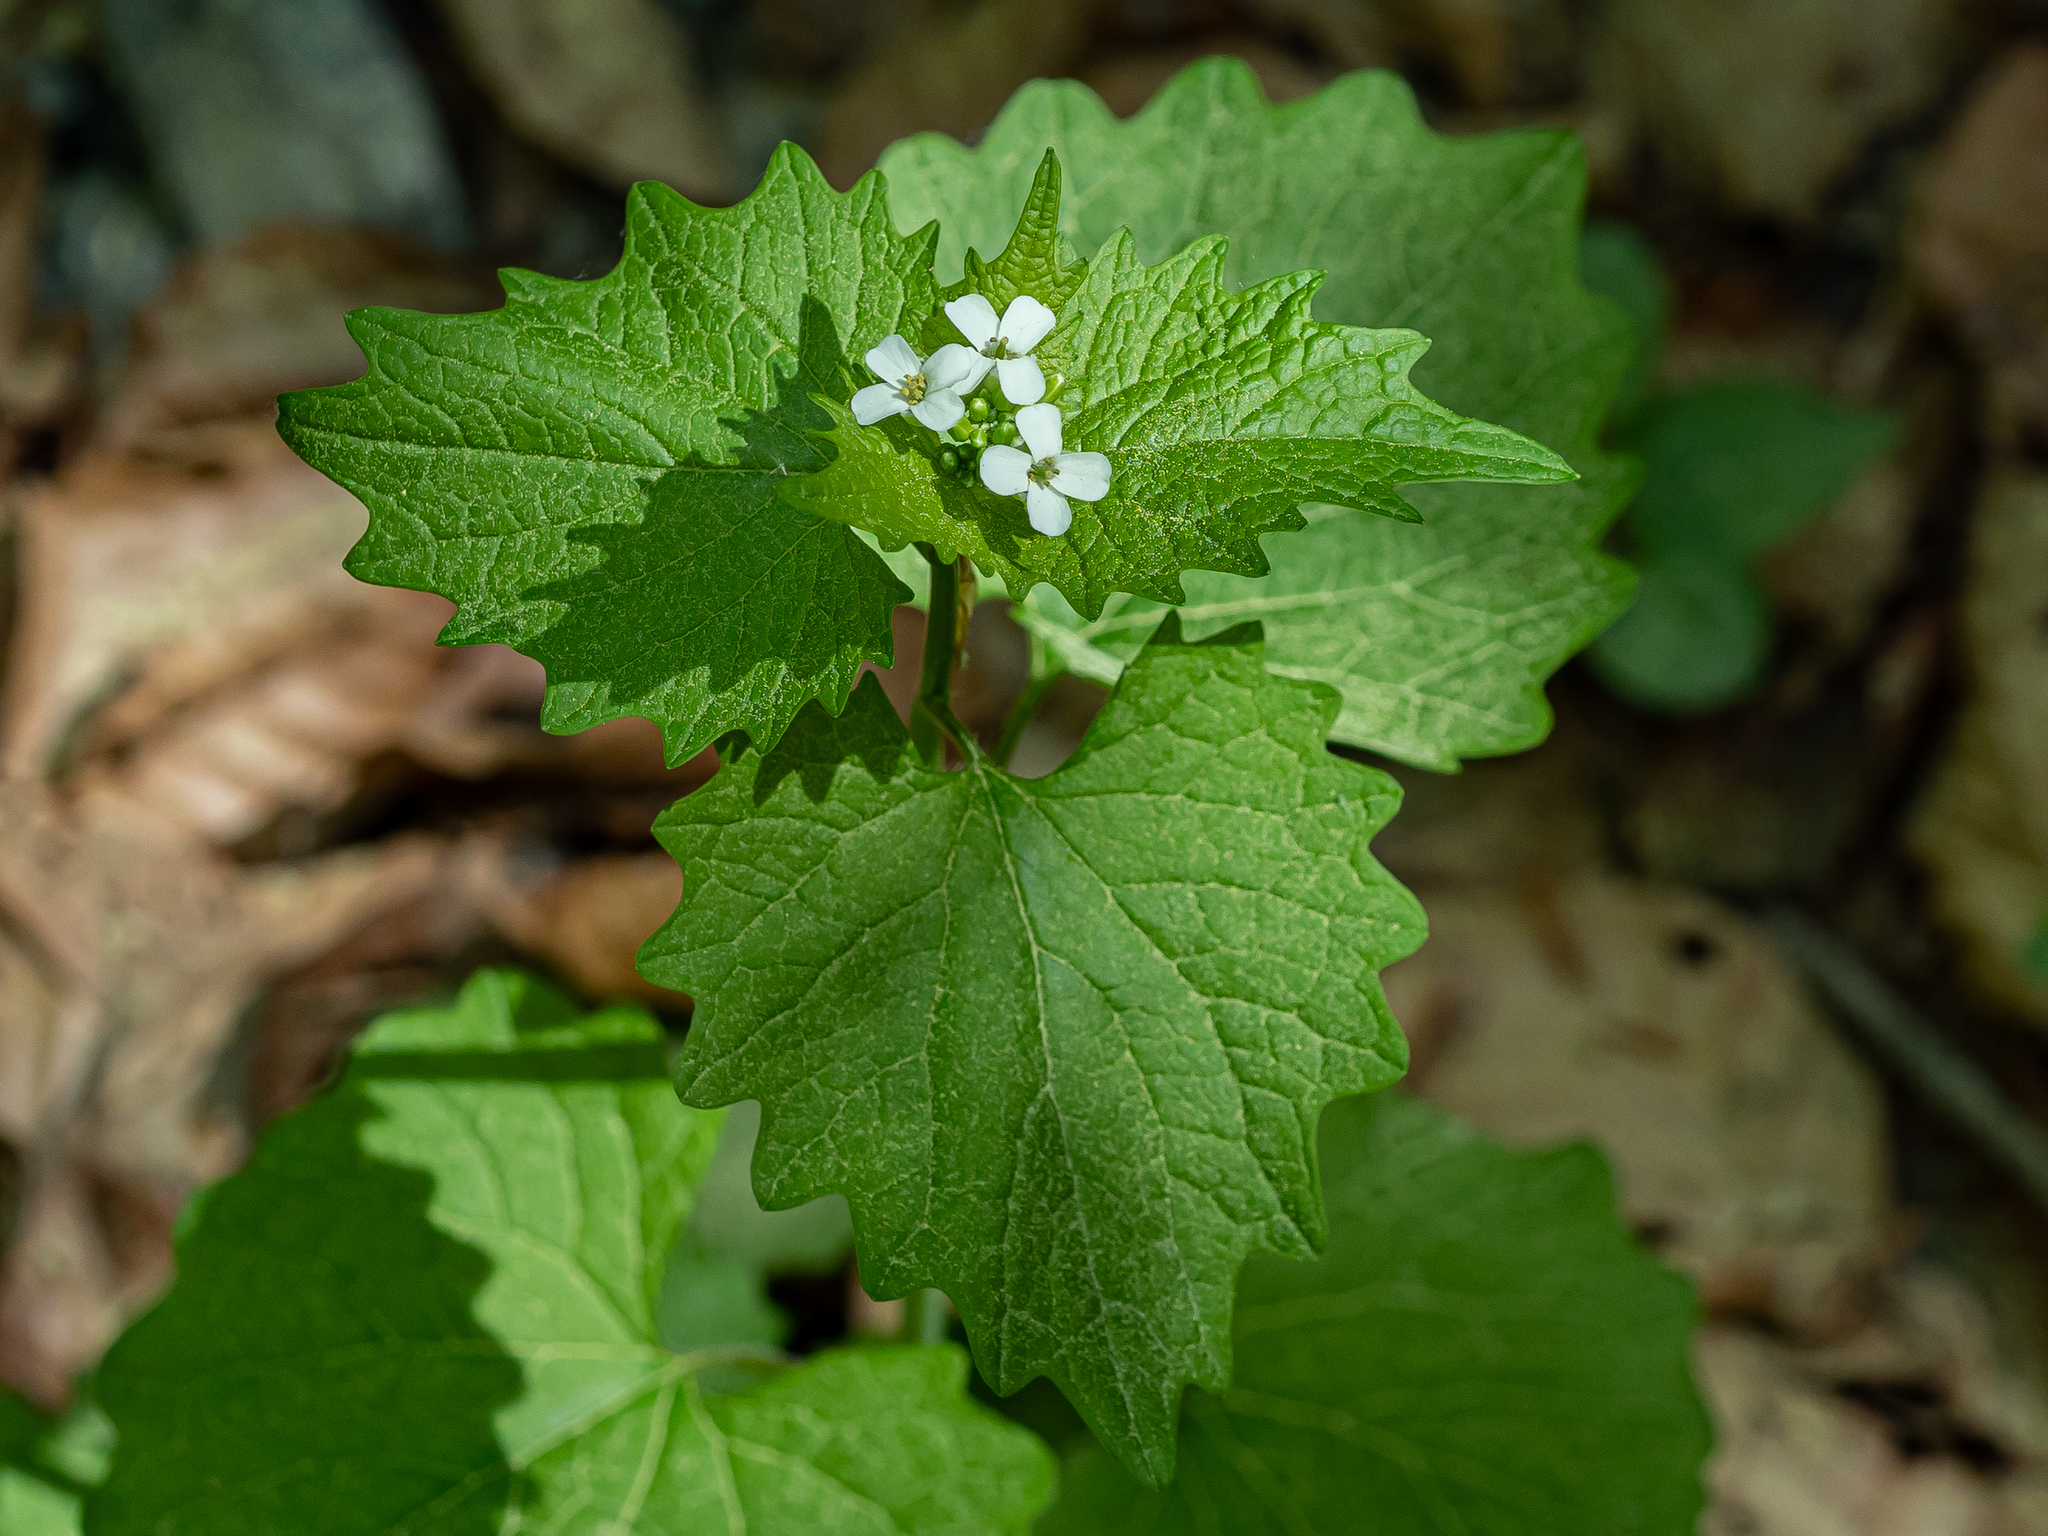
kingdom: Plantae
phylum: Tracheophyta
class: Magnoliopsida
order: Brassicales
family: Brassicaceae
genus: Alliaria
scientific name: Alliaria petiolata
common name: Garlic mustard
